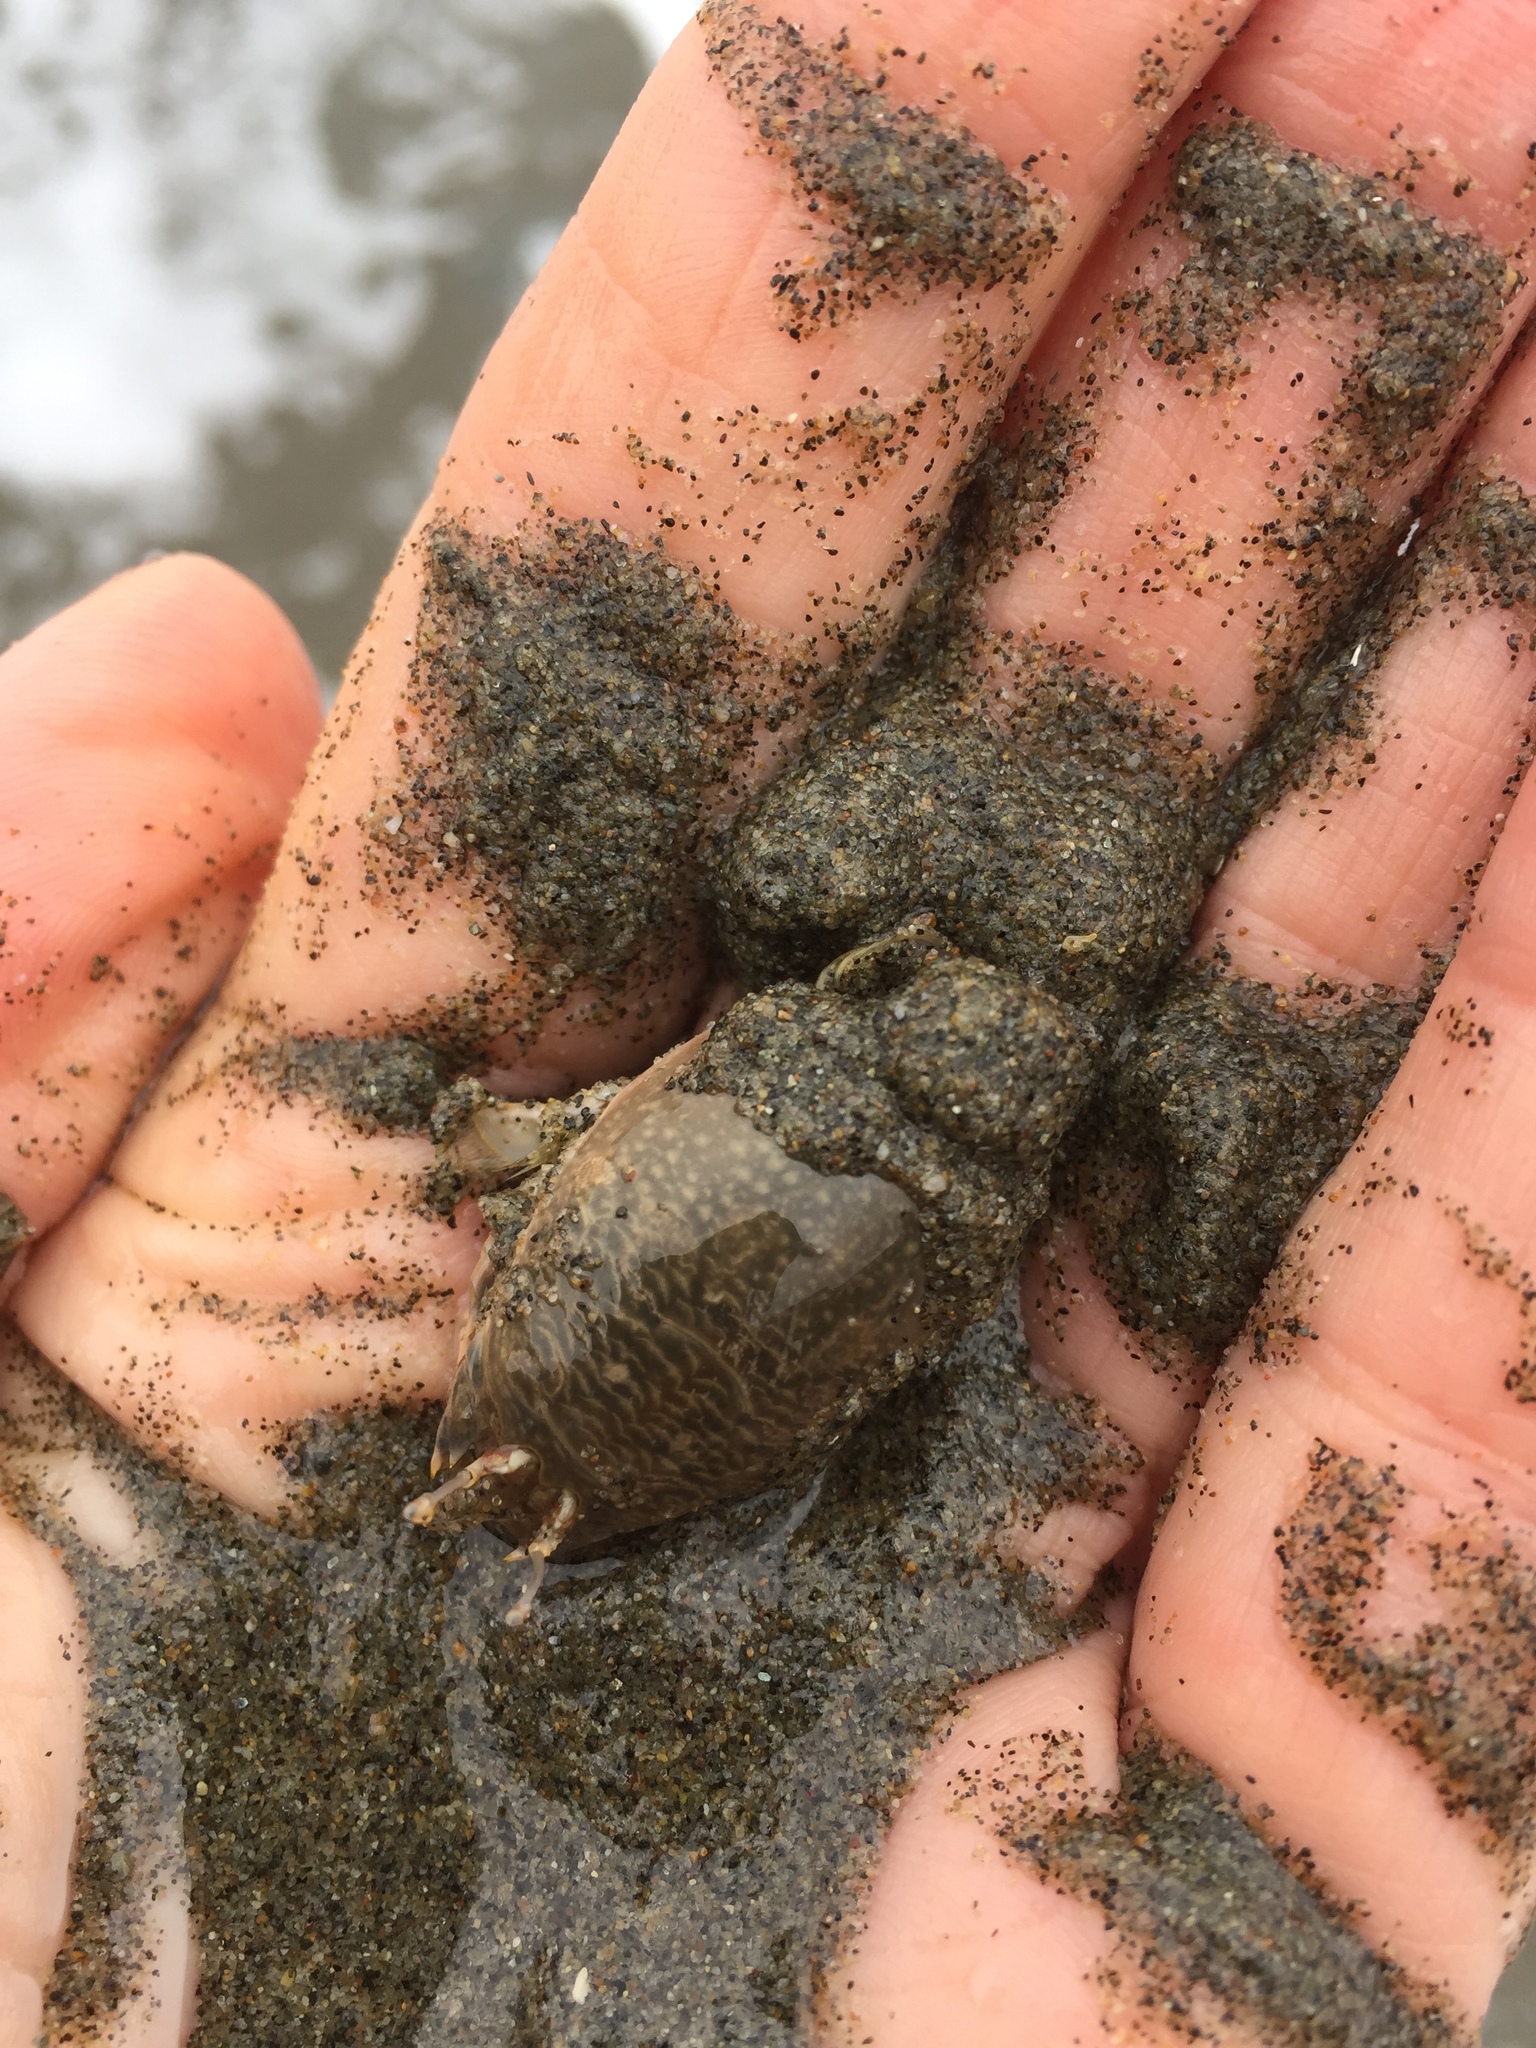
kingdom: Animalia
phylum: Arthropoda
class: Malacostraca
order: Decapoda
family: Hippidae
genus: Emerita
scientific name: Emerita analoga
